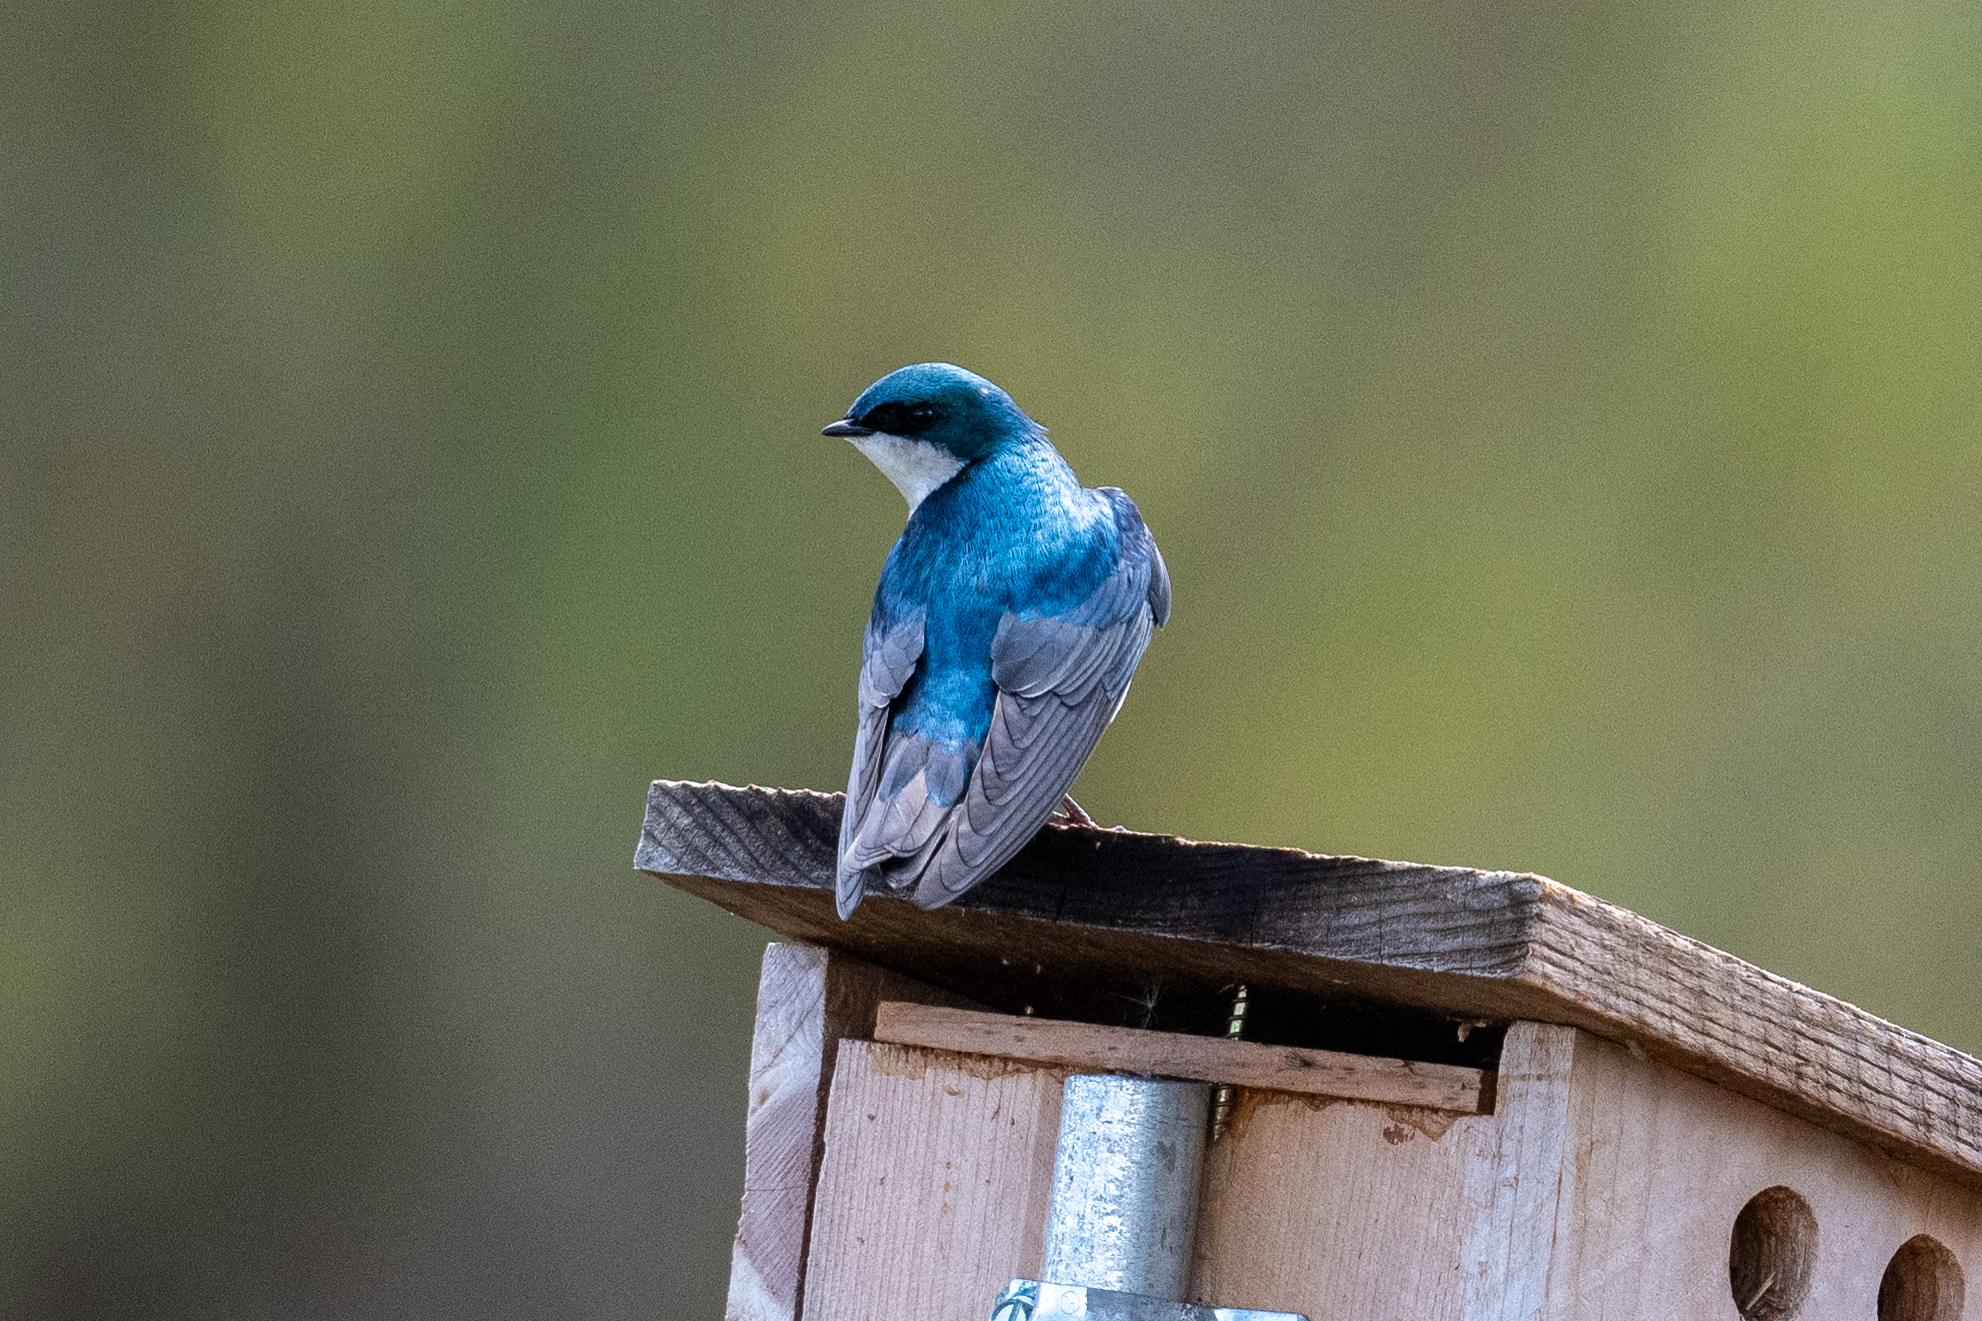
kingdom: Animalia
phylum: Chordata
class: Aves
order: Passeriformes
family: Hirundinidae
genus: Tachycineta
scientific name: Tachycineta bicolor
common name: Tree swallow
